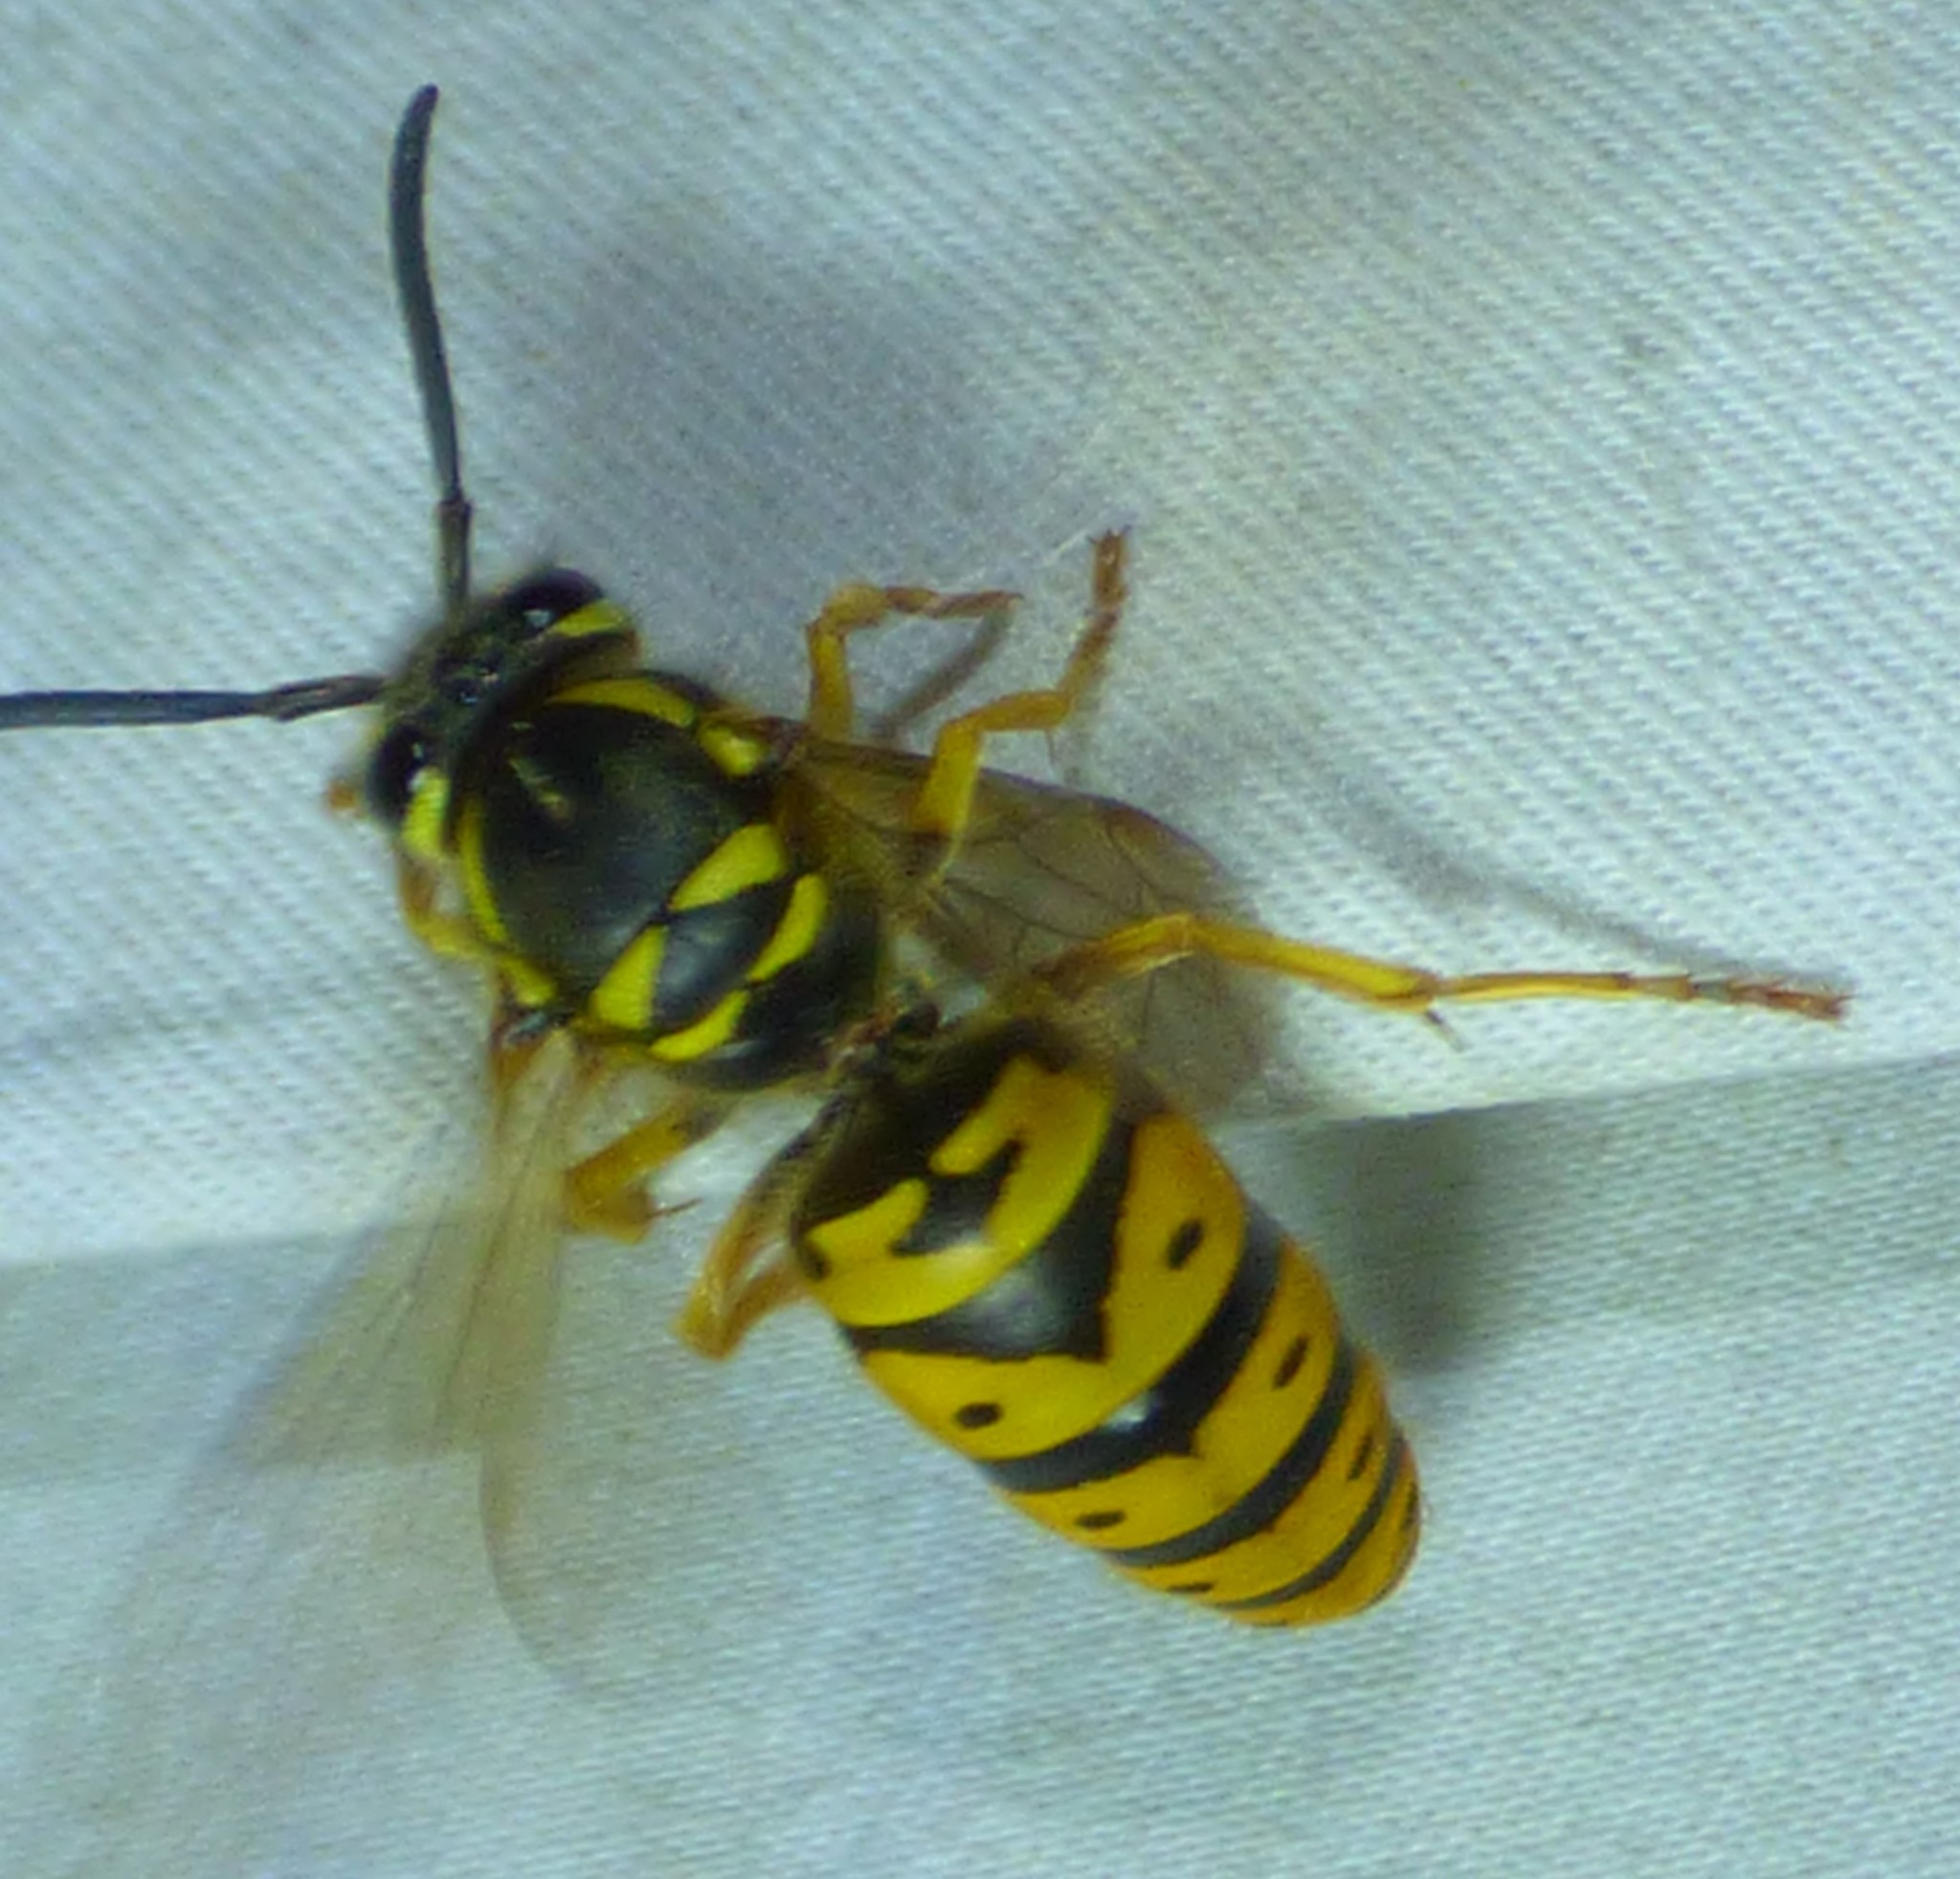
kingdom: Animalia
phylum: Arthropoda
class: Insecta
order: Hymenoptera
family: Vespidae
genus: Vespula
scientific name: Vespula maculifrons
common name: Eastern yellowjacket
